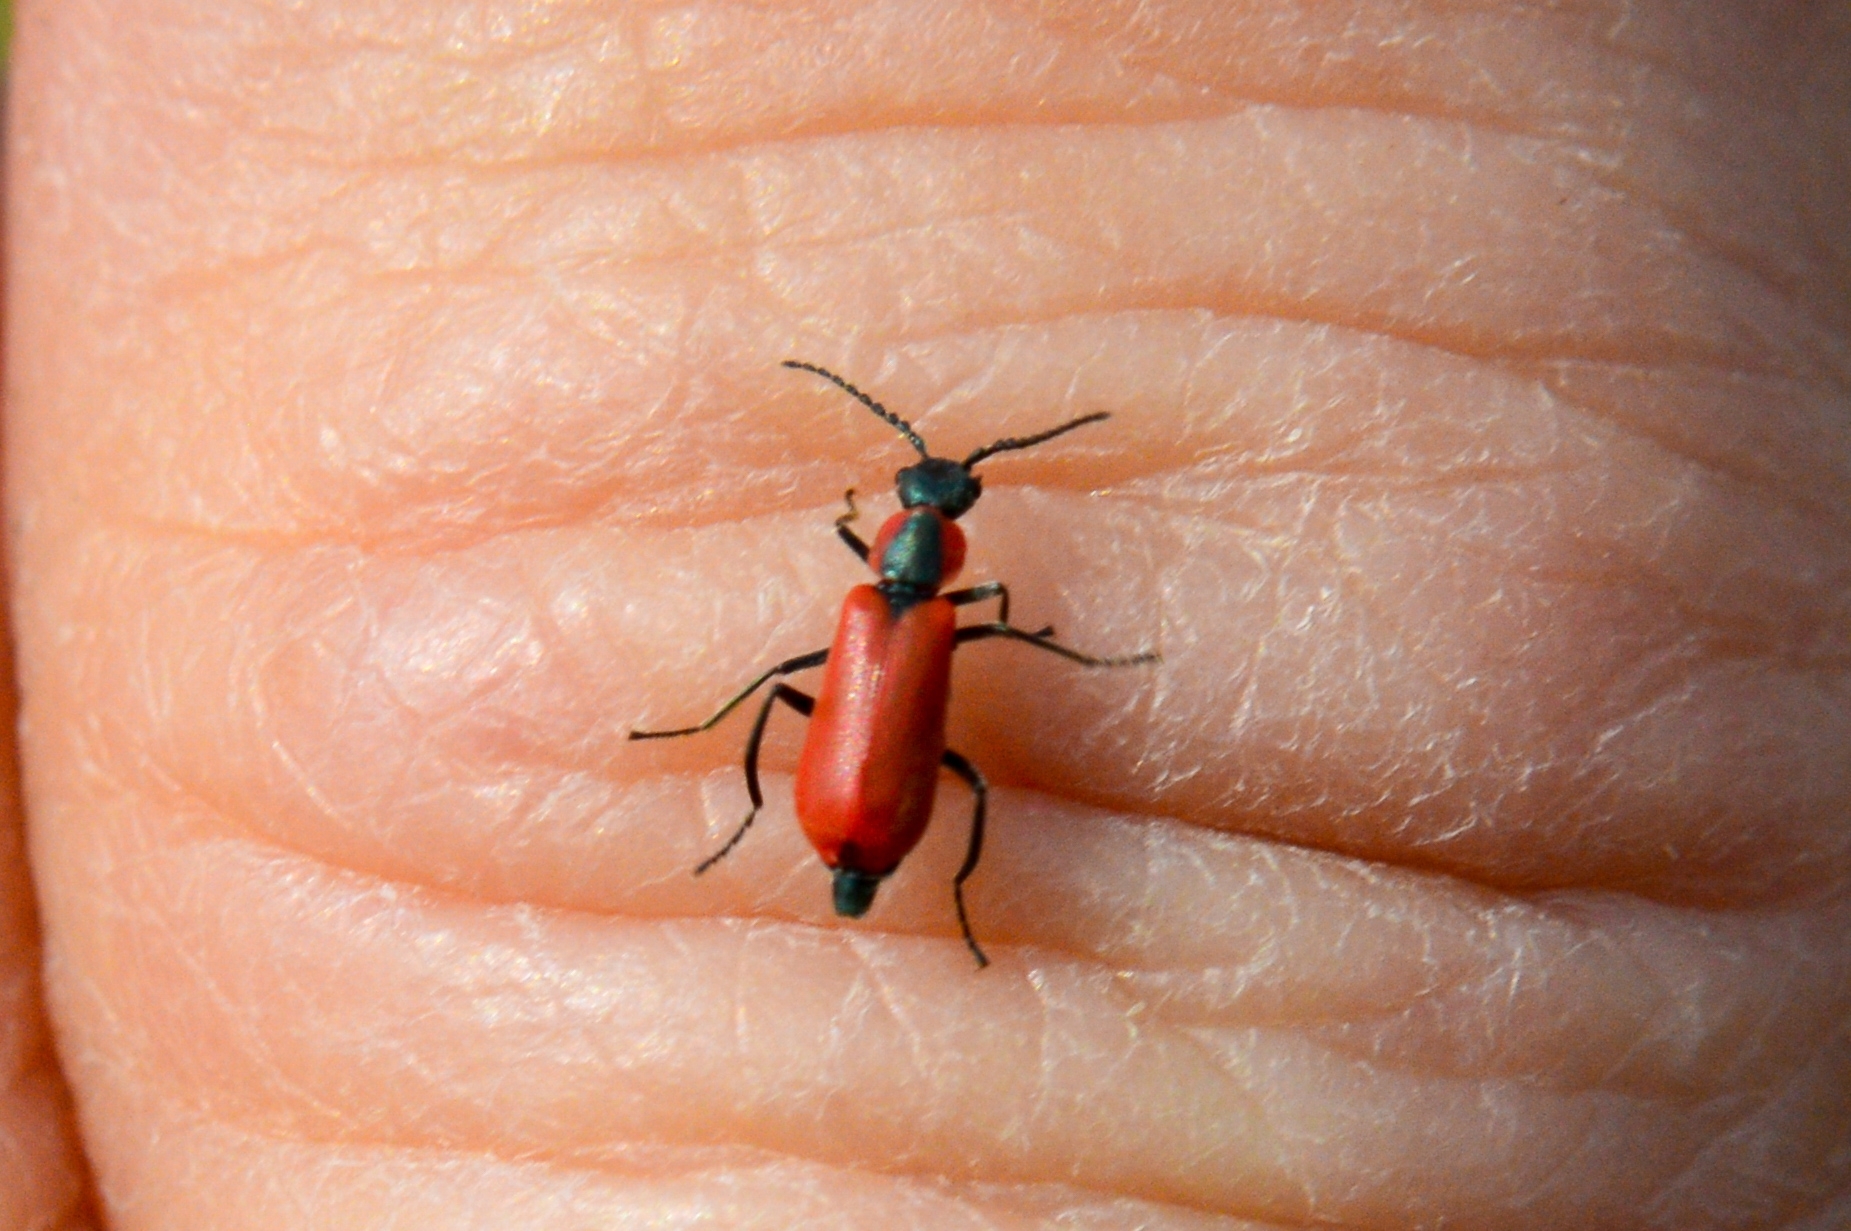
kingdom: Animalia
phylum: Arthropoda
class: Insecta
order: Coleoptera
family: Melyridae
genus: Anthocomus
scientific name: Anthocomus rufus
